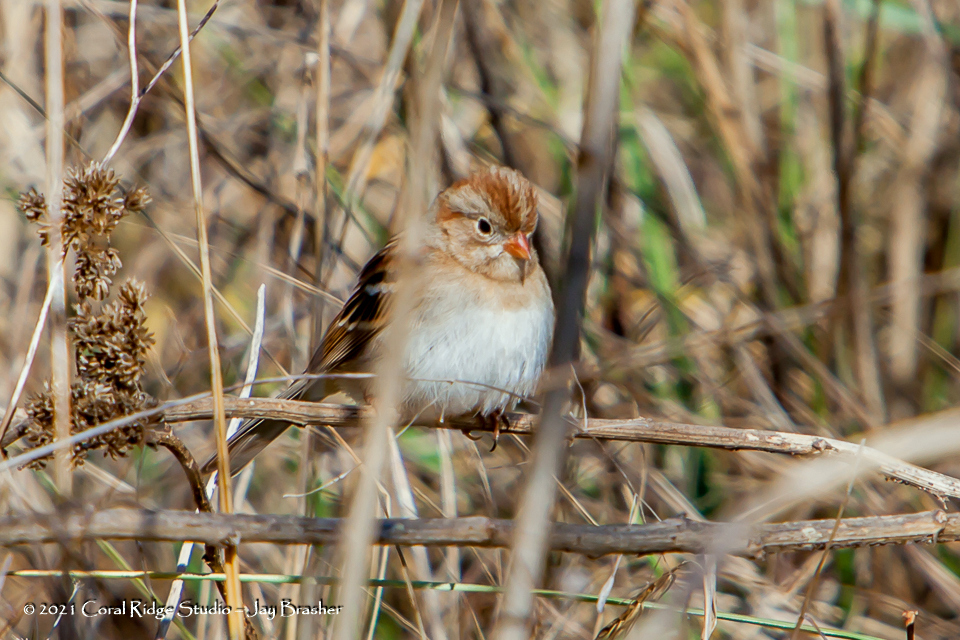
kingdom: Animalia
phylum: Chordata
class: Aves
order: Passeriformes
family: Passerellidae
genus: Spizella
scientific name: Spizella pusilla
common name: Field sparrow
